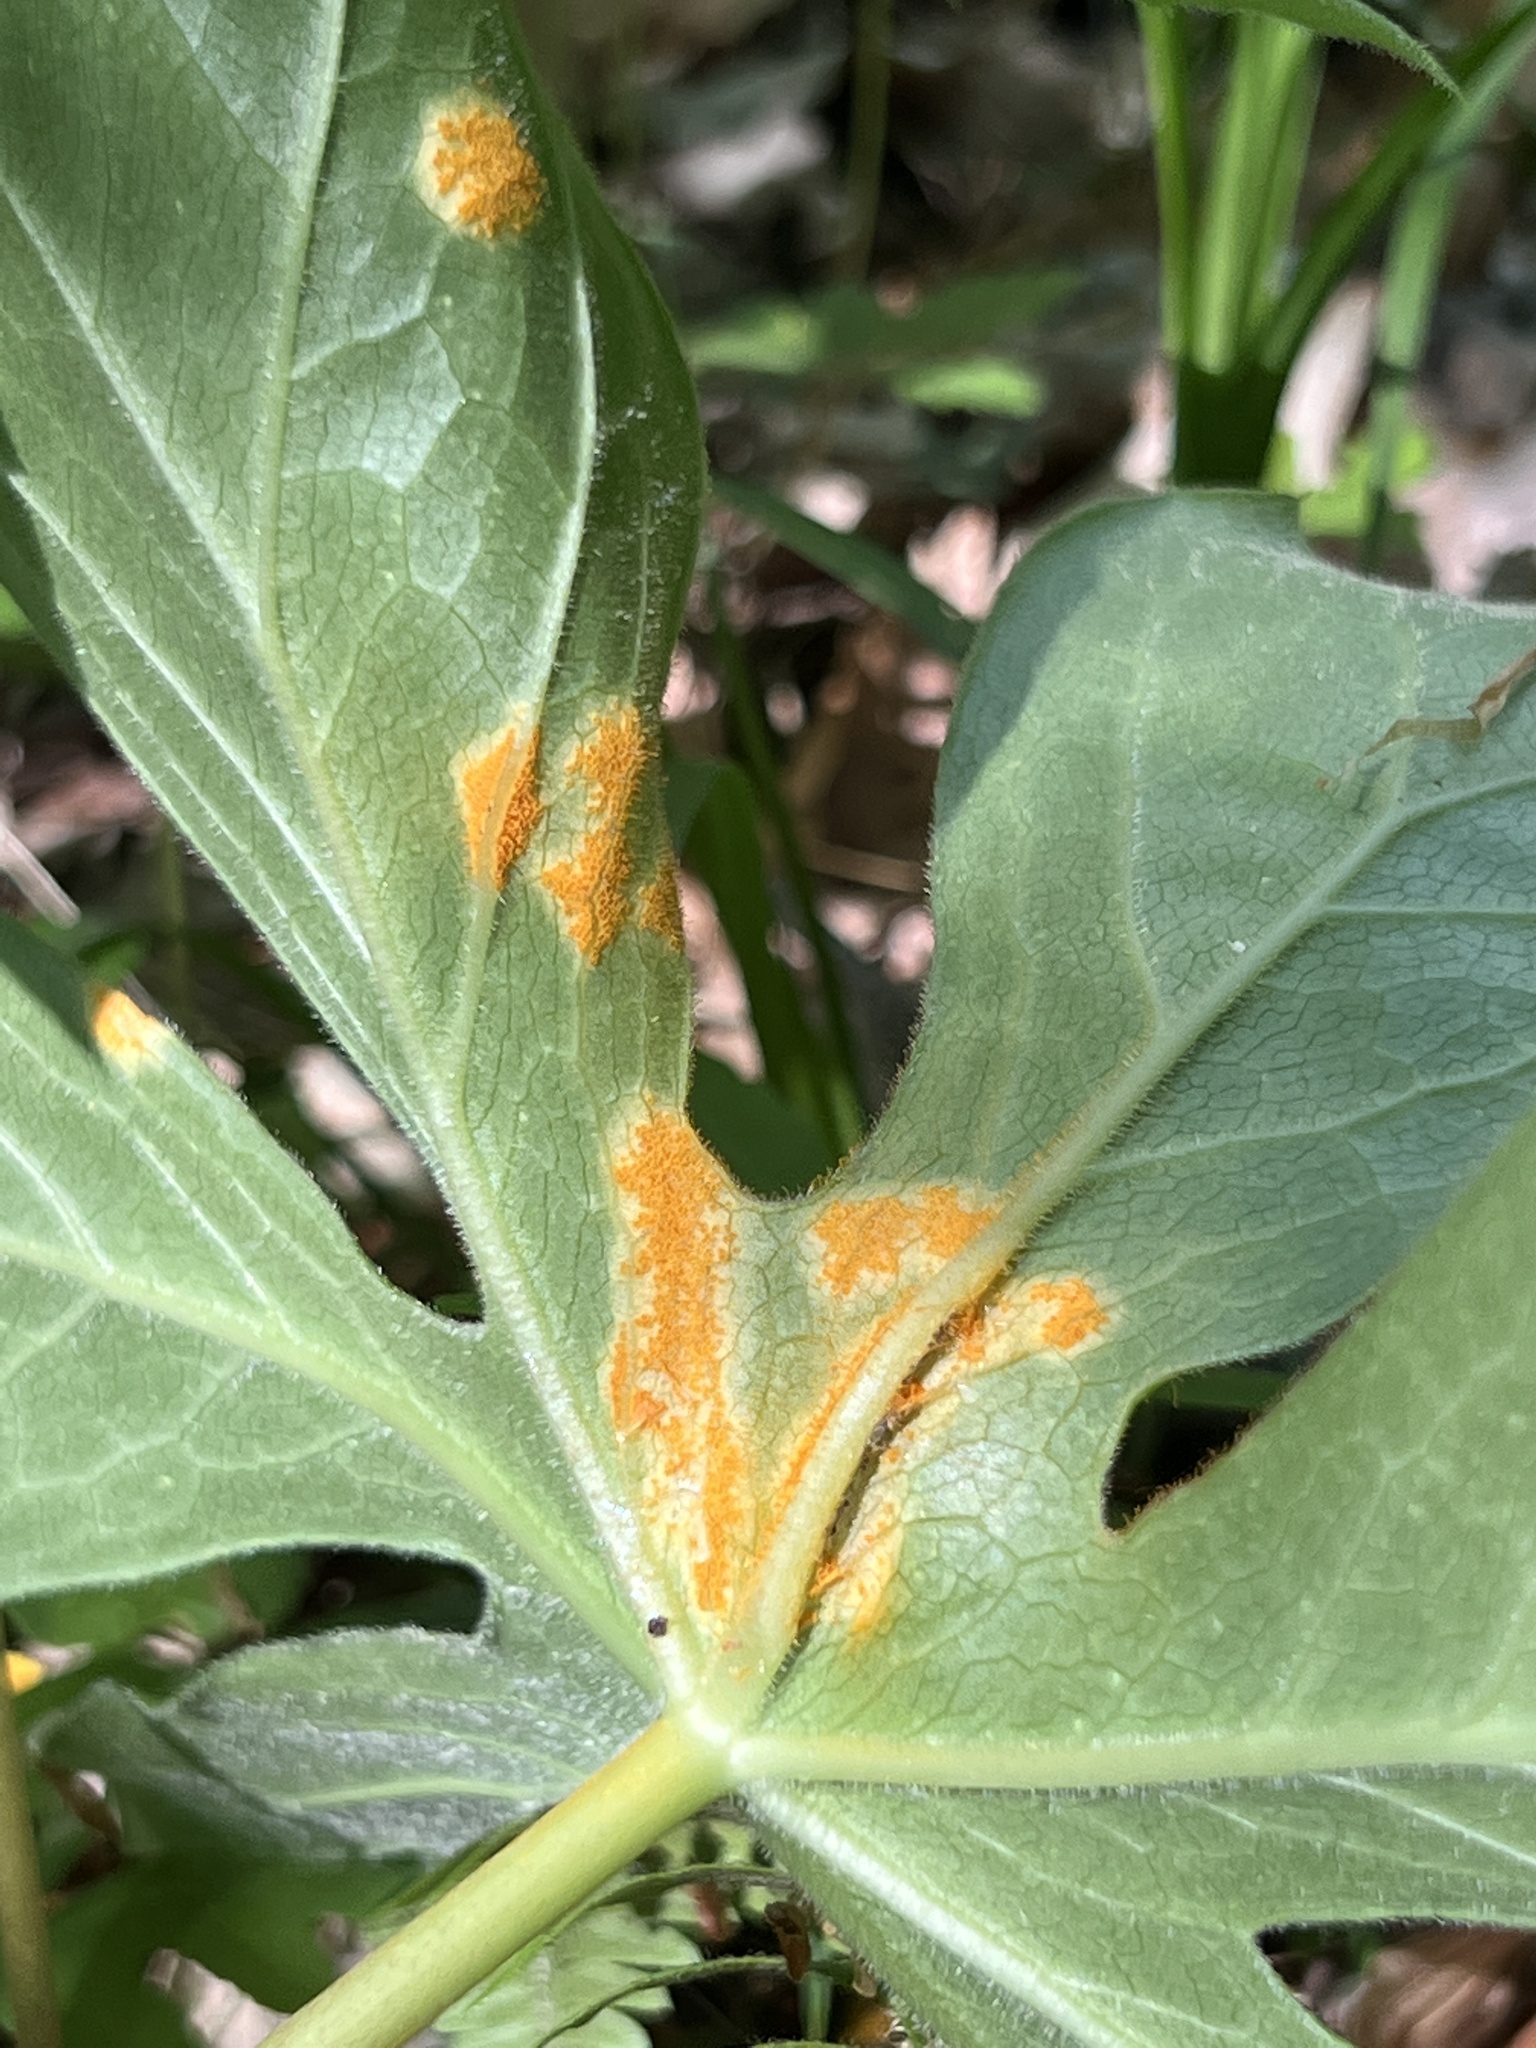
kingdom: Fungi
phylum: Basidiomycota
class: Pucciniomycetes
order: Pucciniales
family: Pucciniaceae
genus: Puccinia
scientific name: Puccinia podophylli
